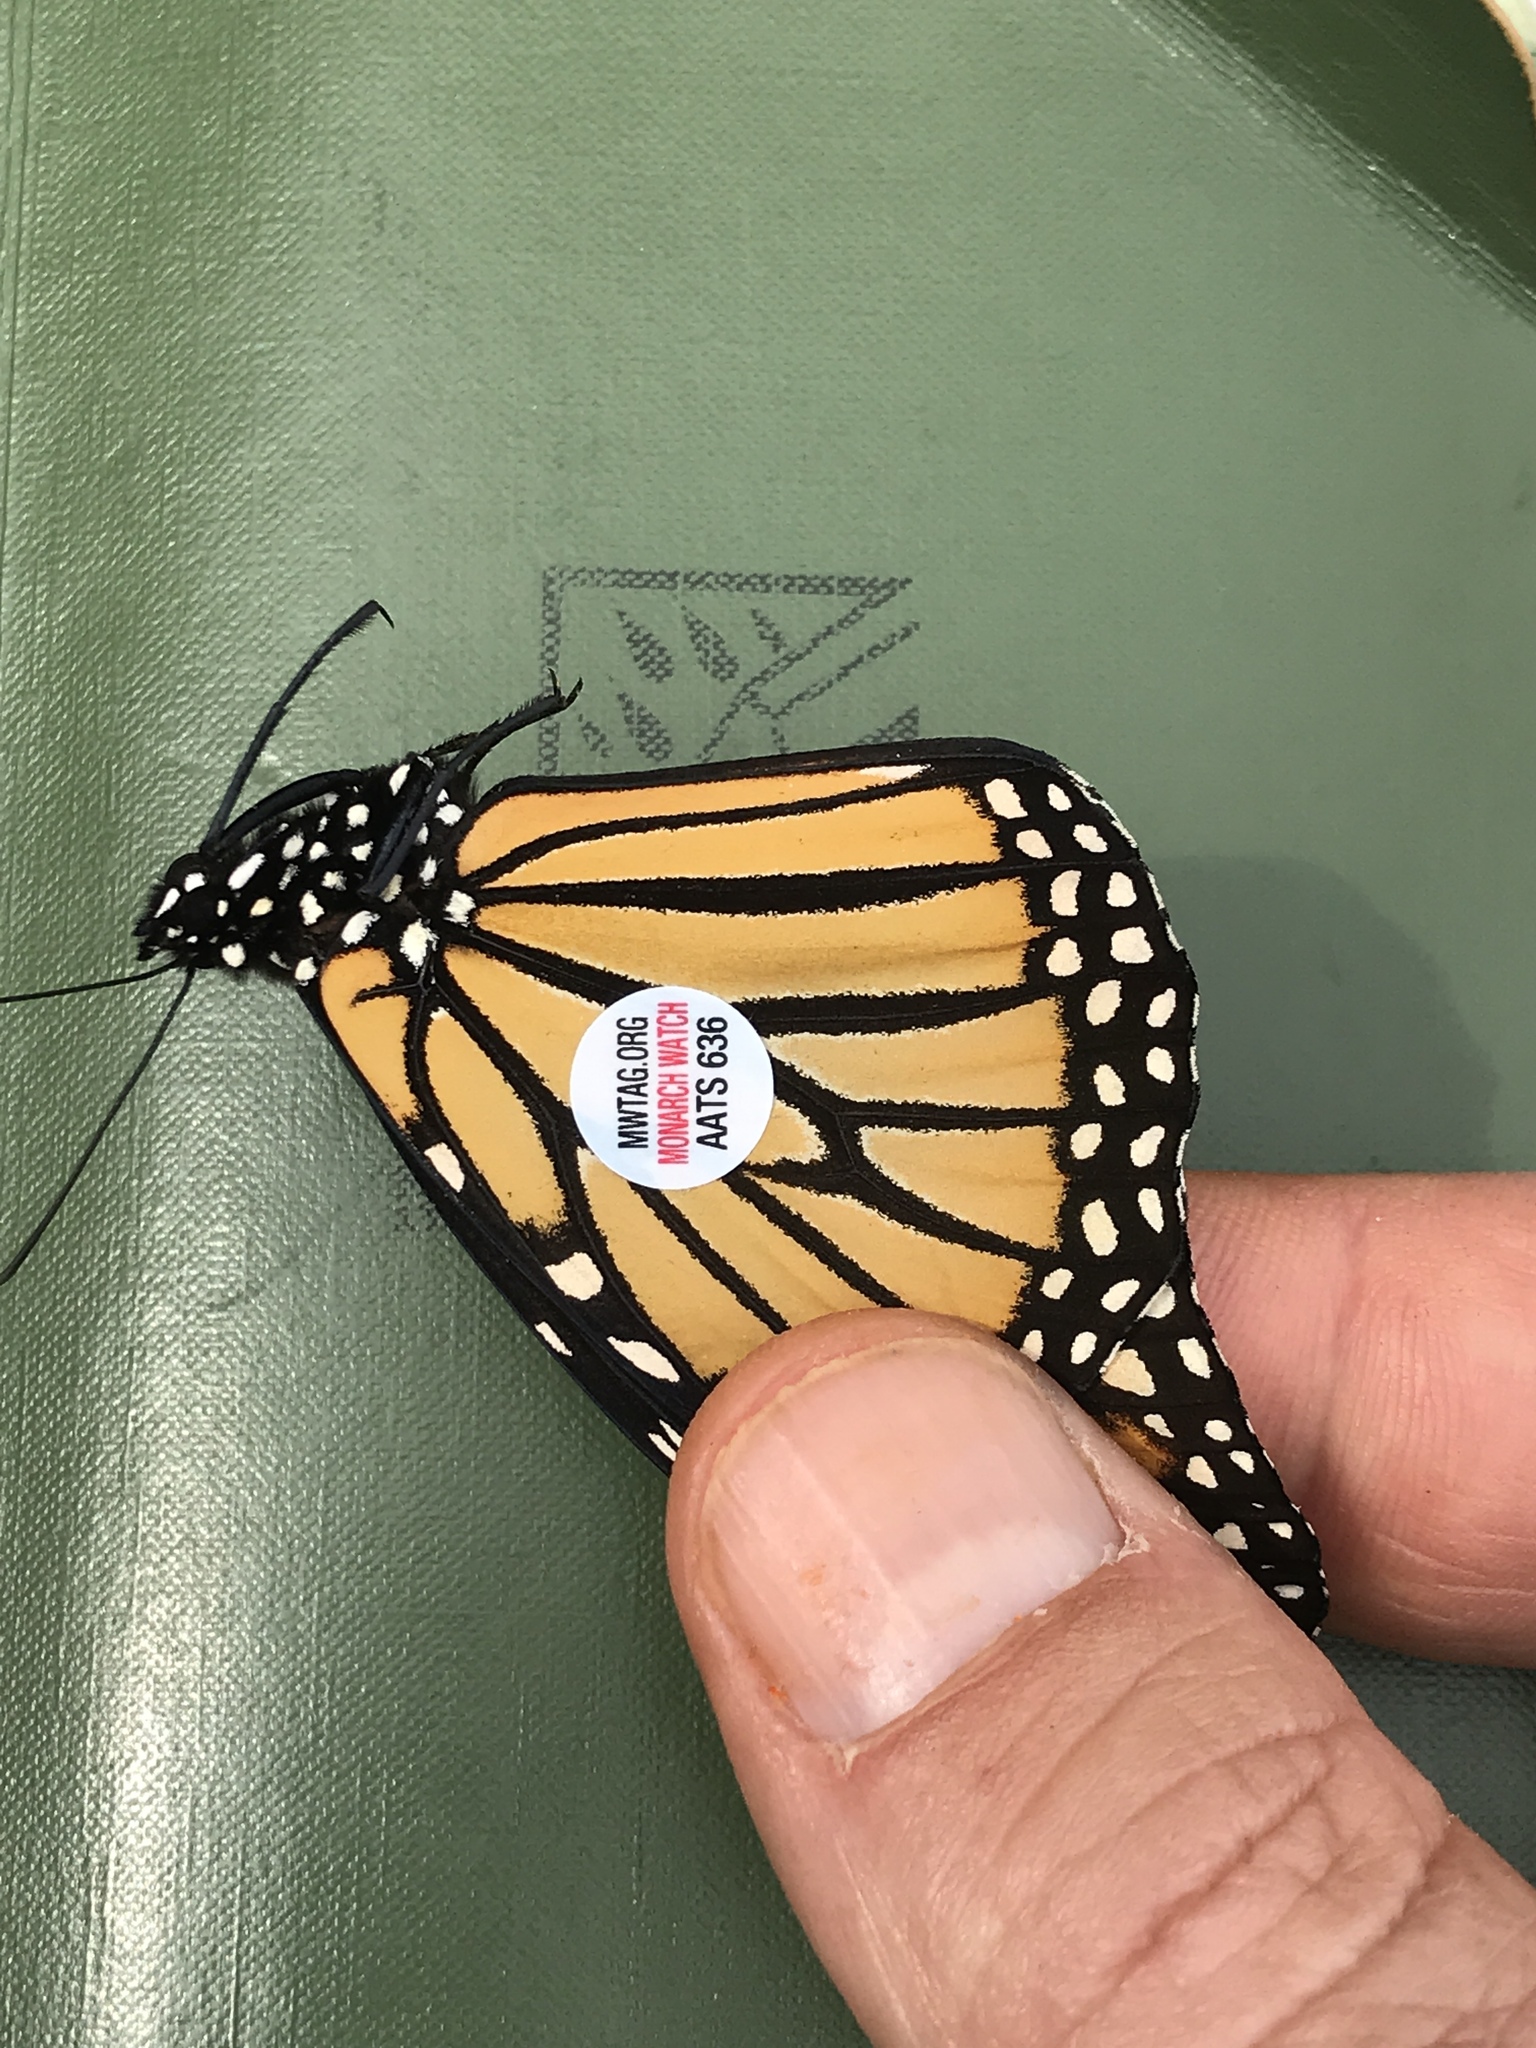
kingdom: Animalia
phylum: Arthropoda
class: Insecta
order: Lepidoptera
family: Nymphalidae
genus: Danaus
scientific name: Danaus plexippus
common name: Monarch
